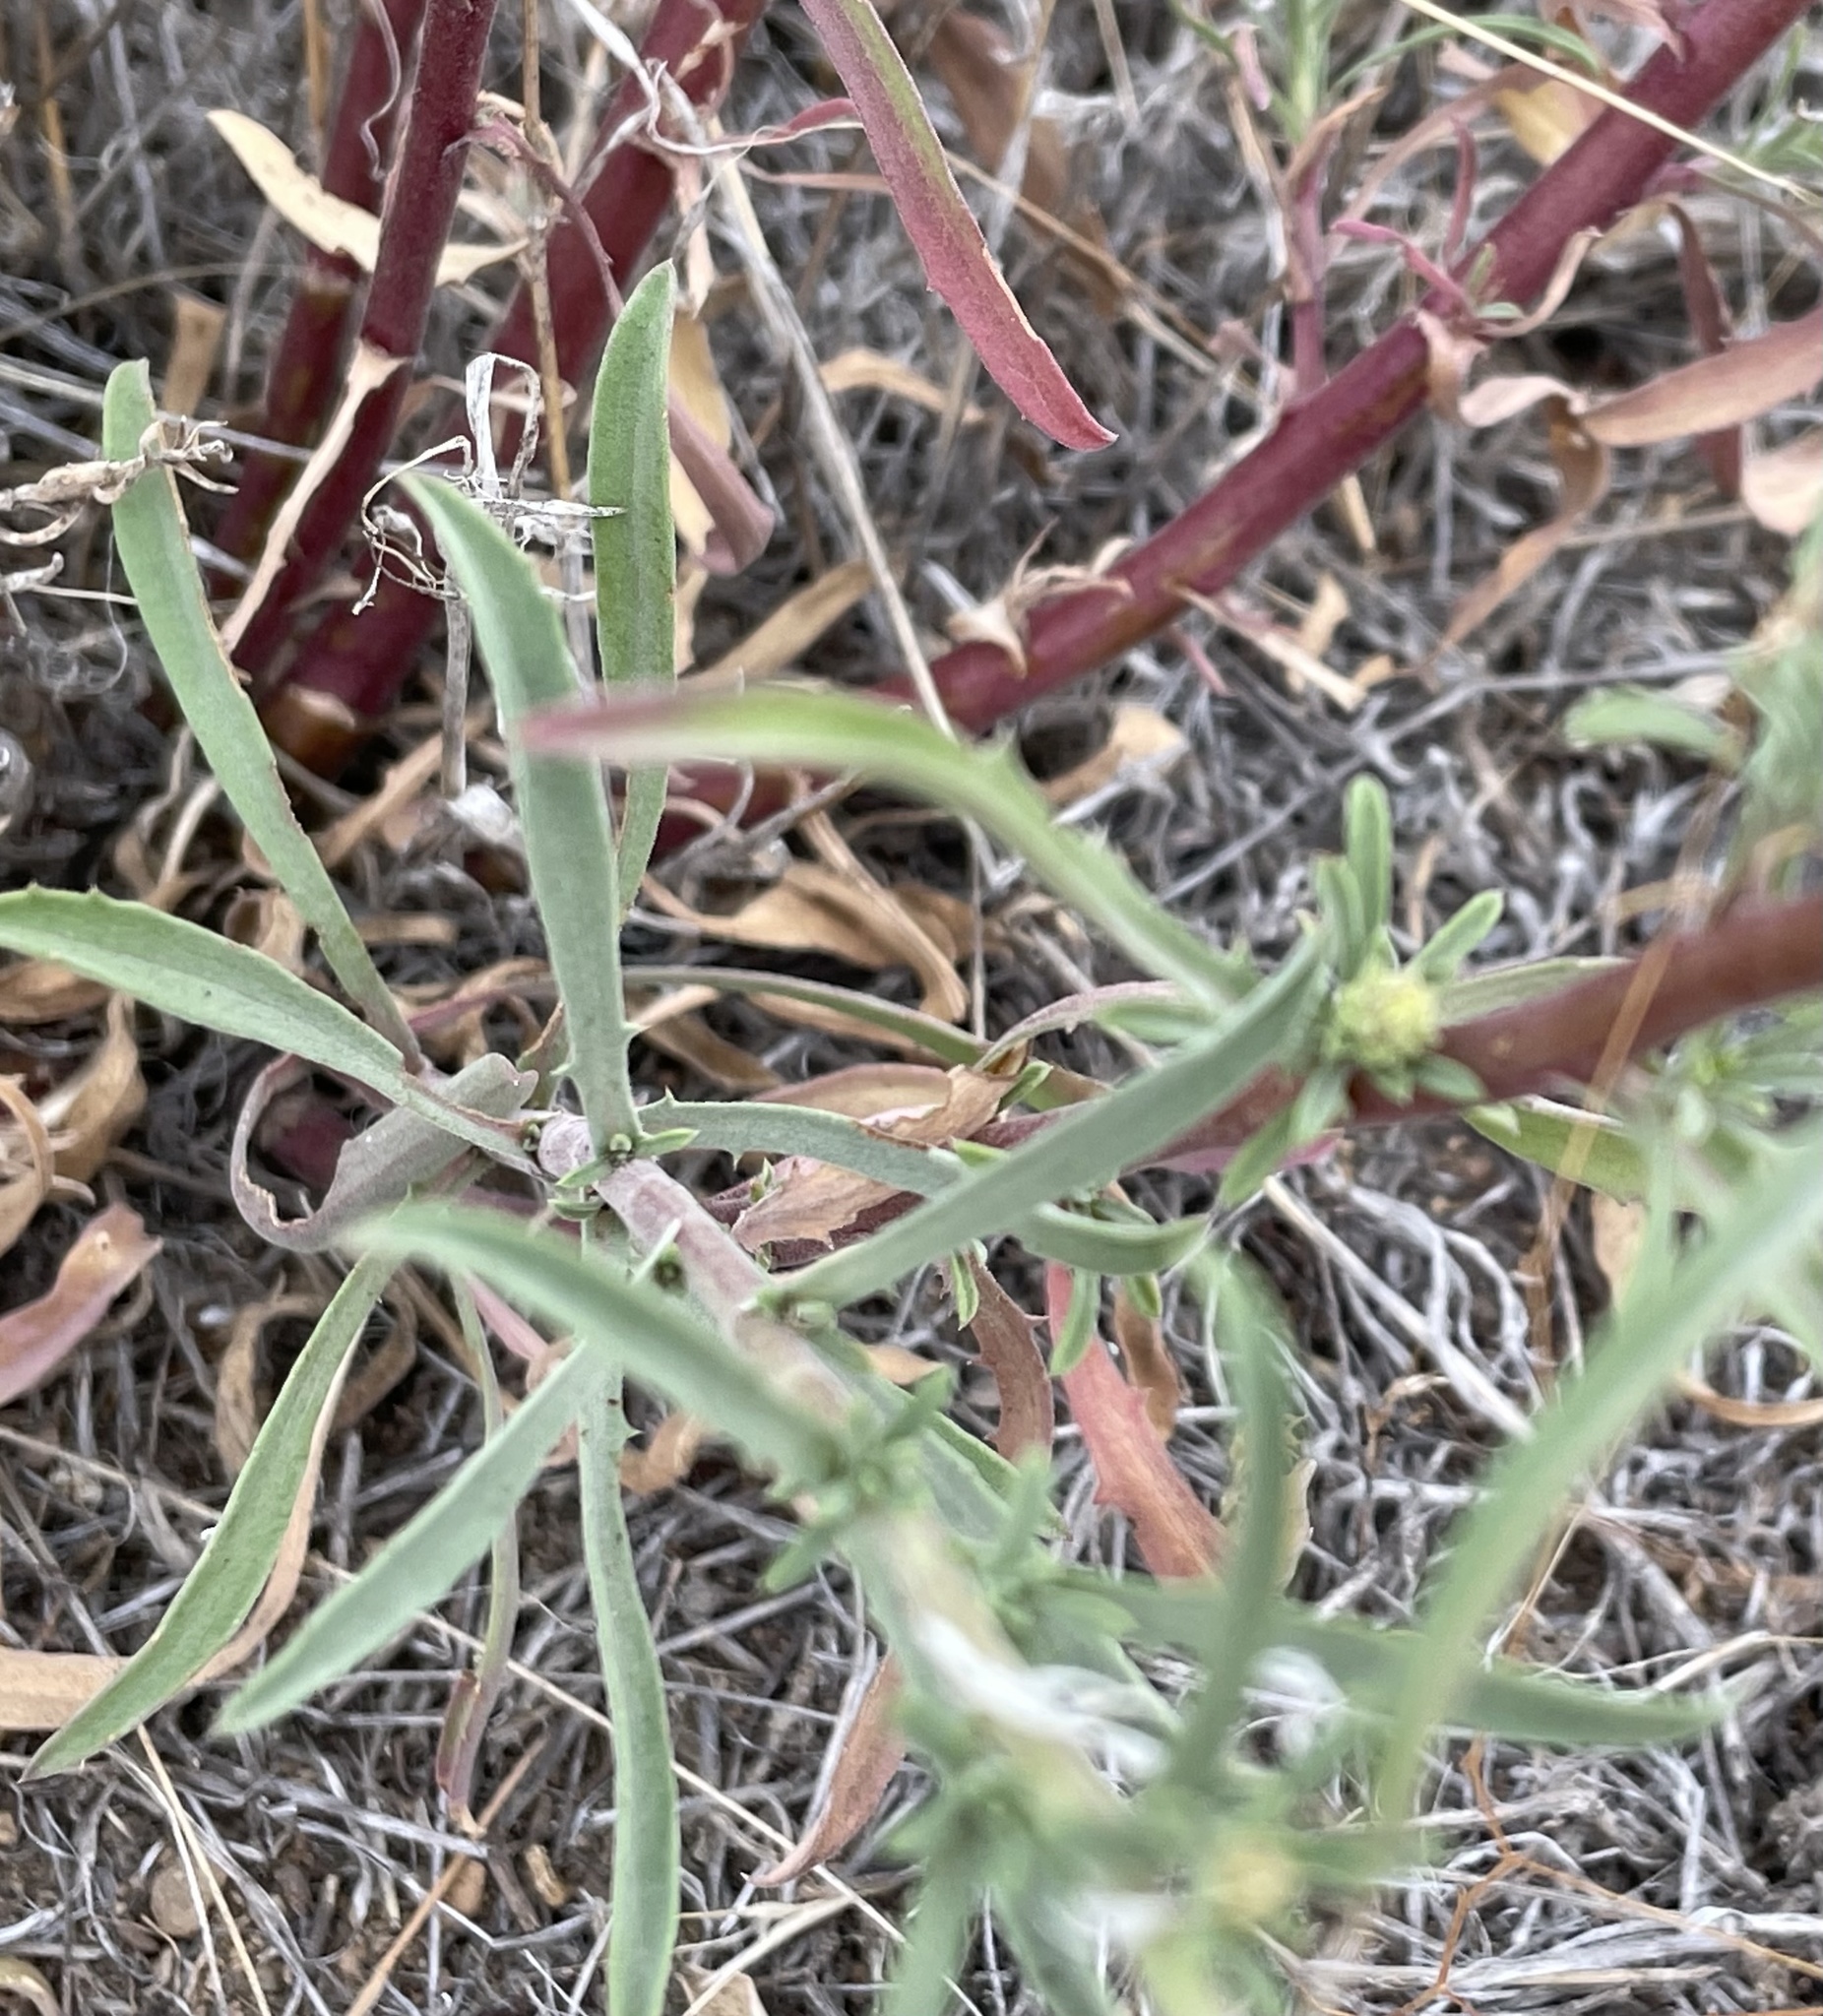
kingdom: Plantae
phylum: Tracheophyta
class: Magnoliopsida
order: Asterales
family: Asteraceae
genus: Dieteria
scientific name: Dieteria canescens
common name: Hoary-aster
